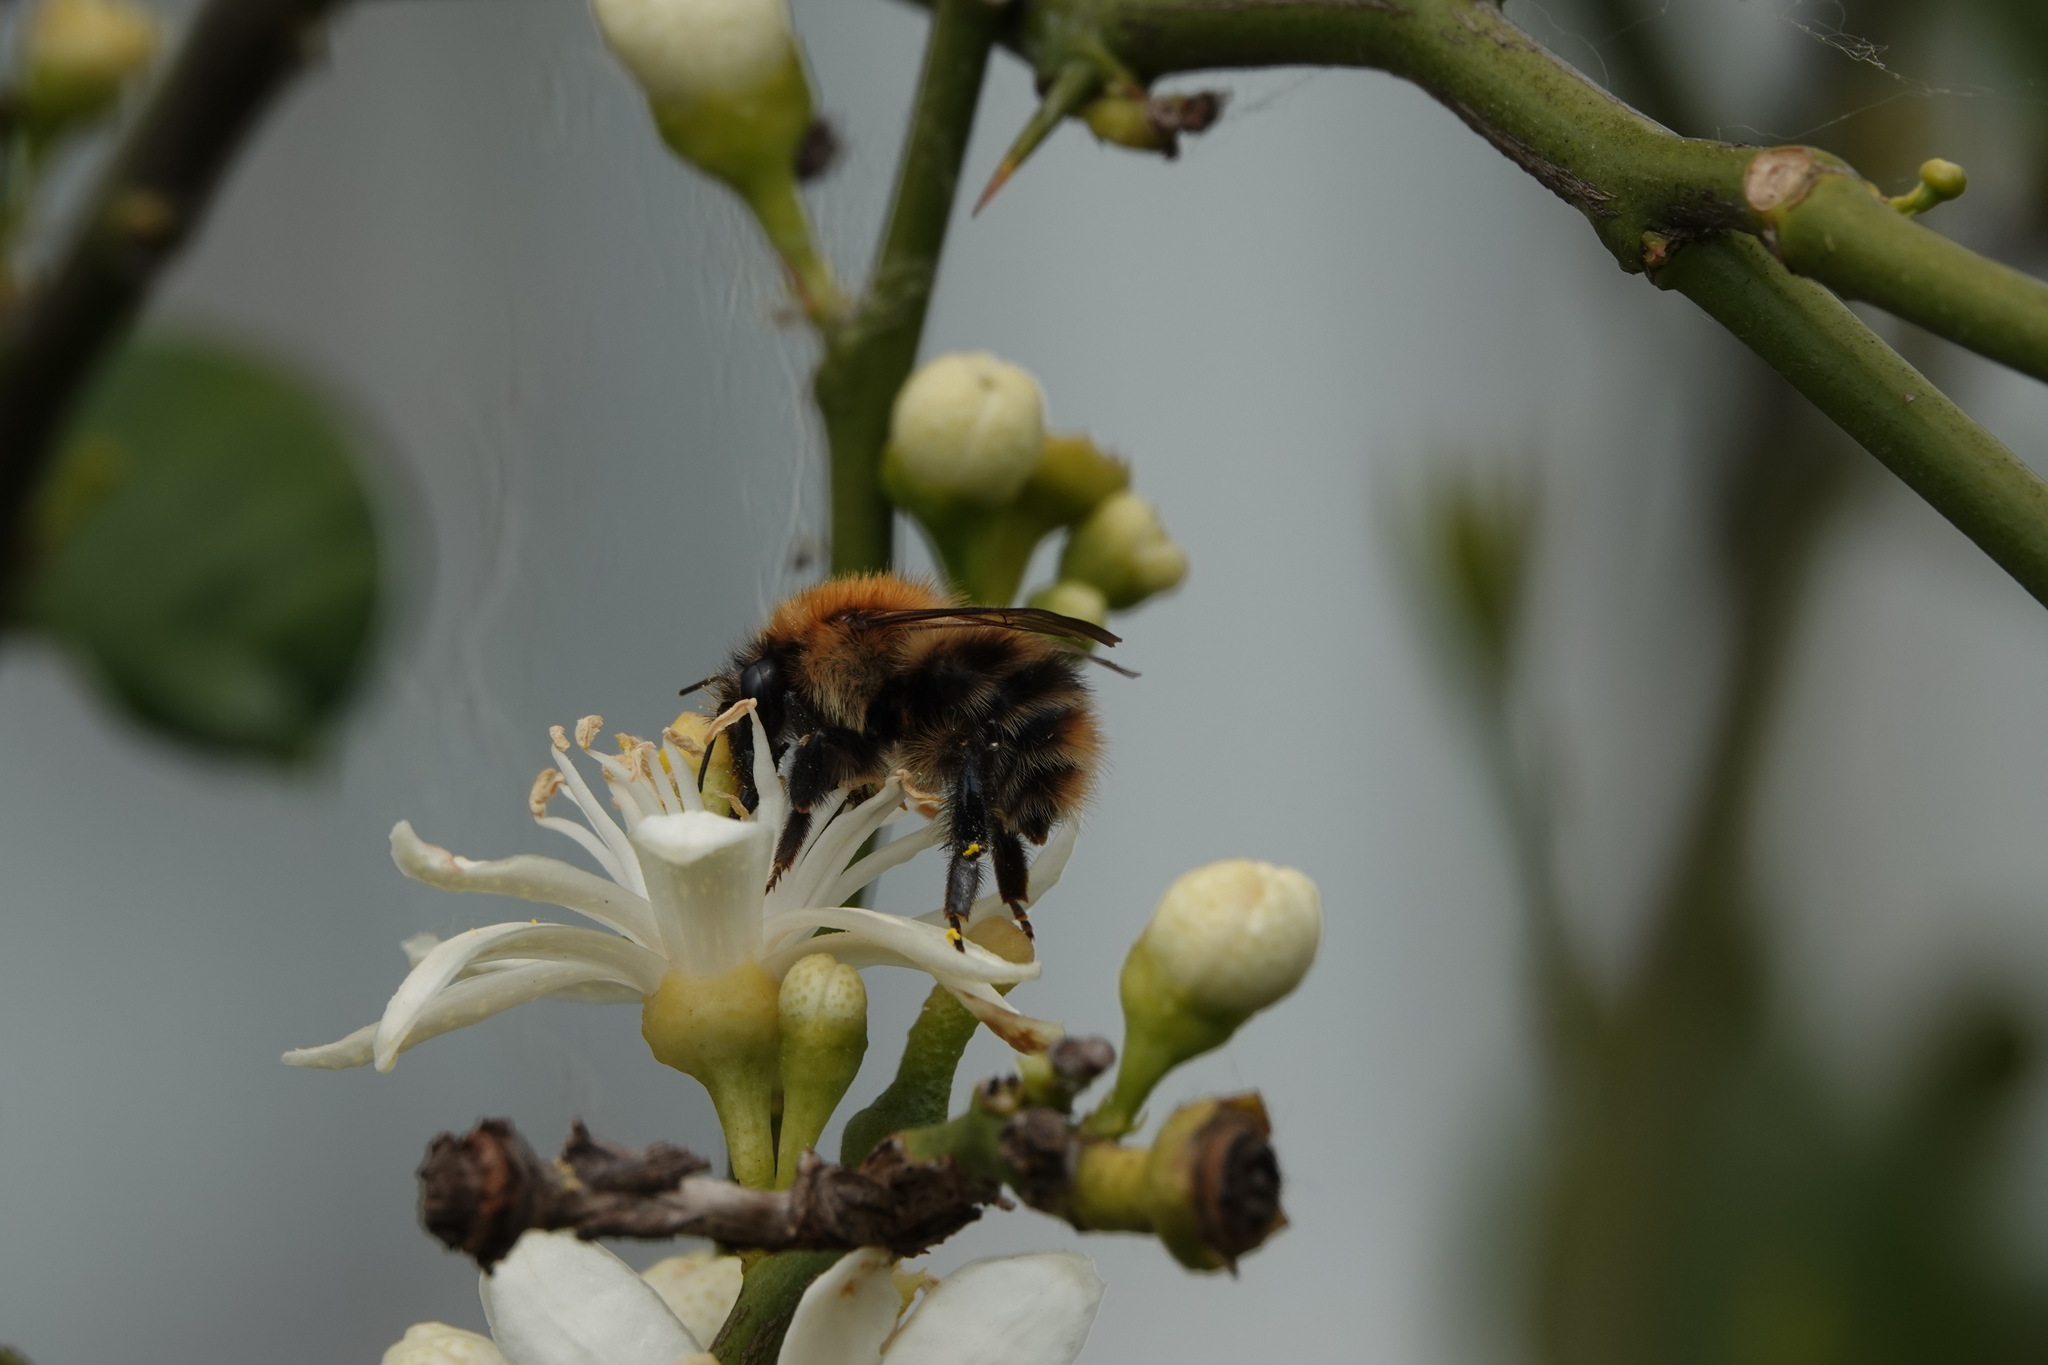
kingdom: Animalia
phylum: Arthropoda
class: Insecta
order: Hymenoptera
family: Apidae
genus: Bombus
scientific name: Bombus pascuorum
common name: Common carder bee
